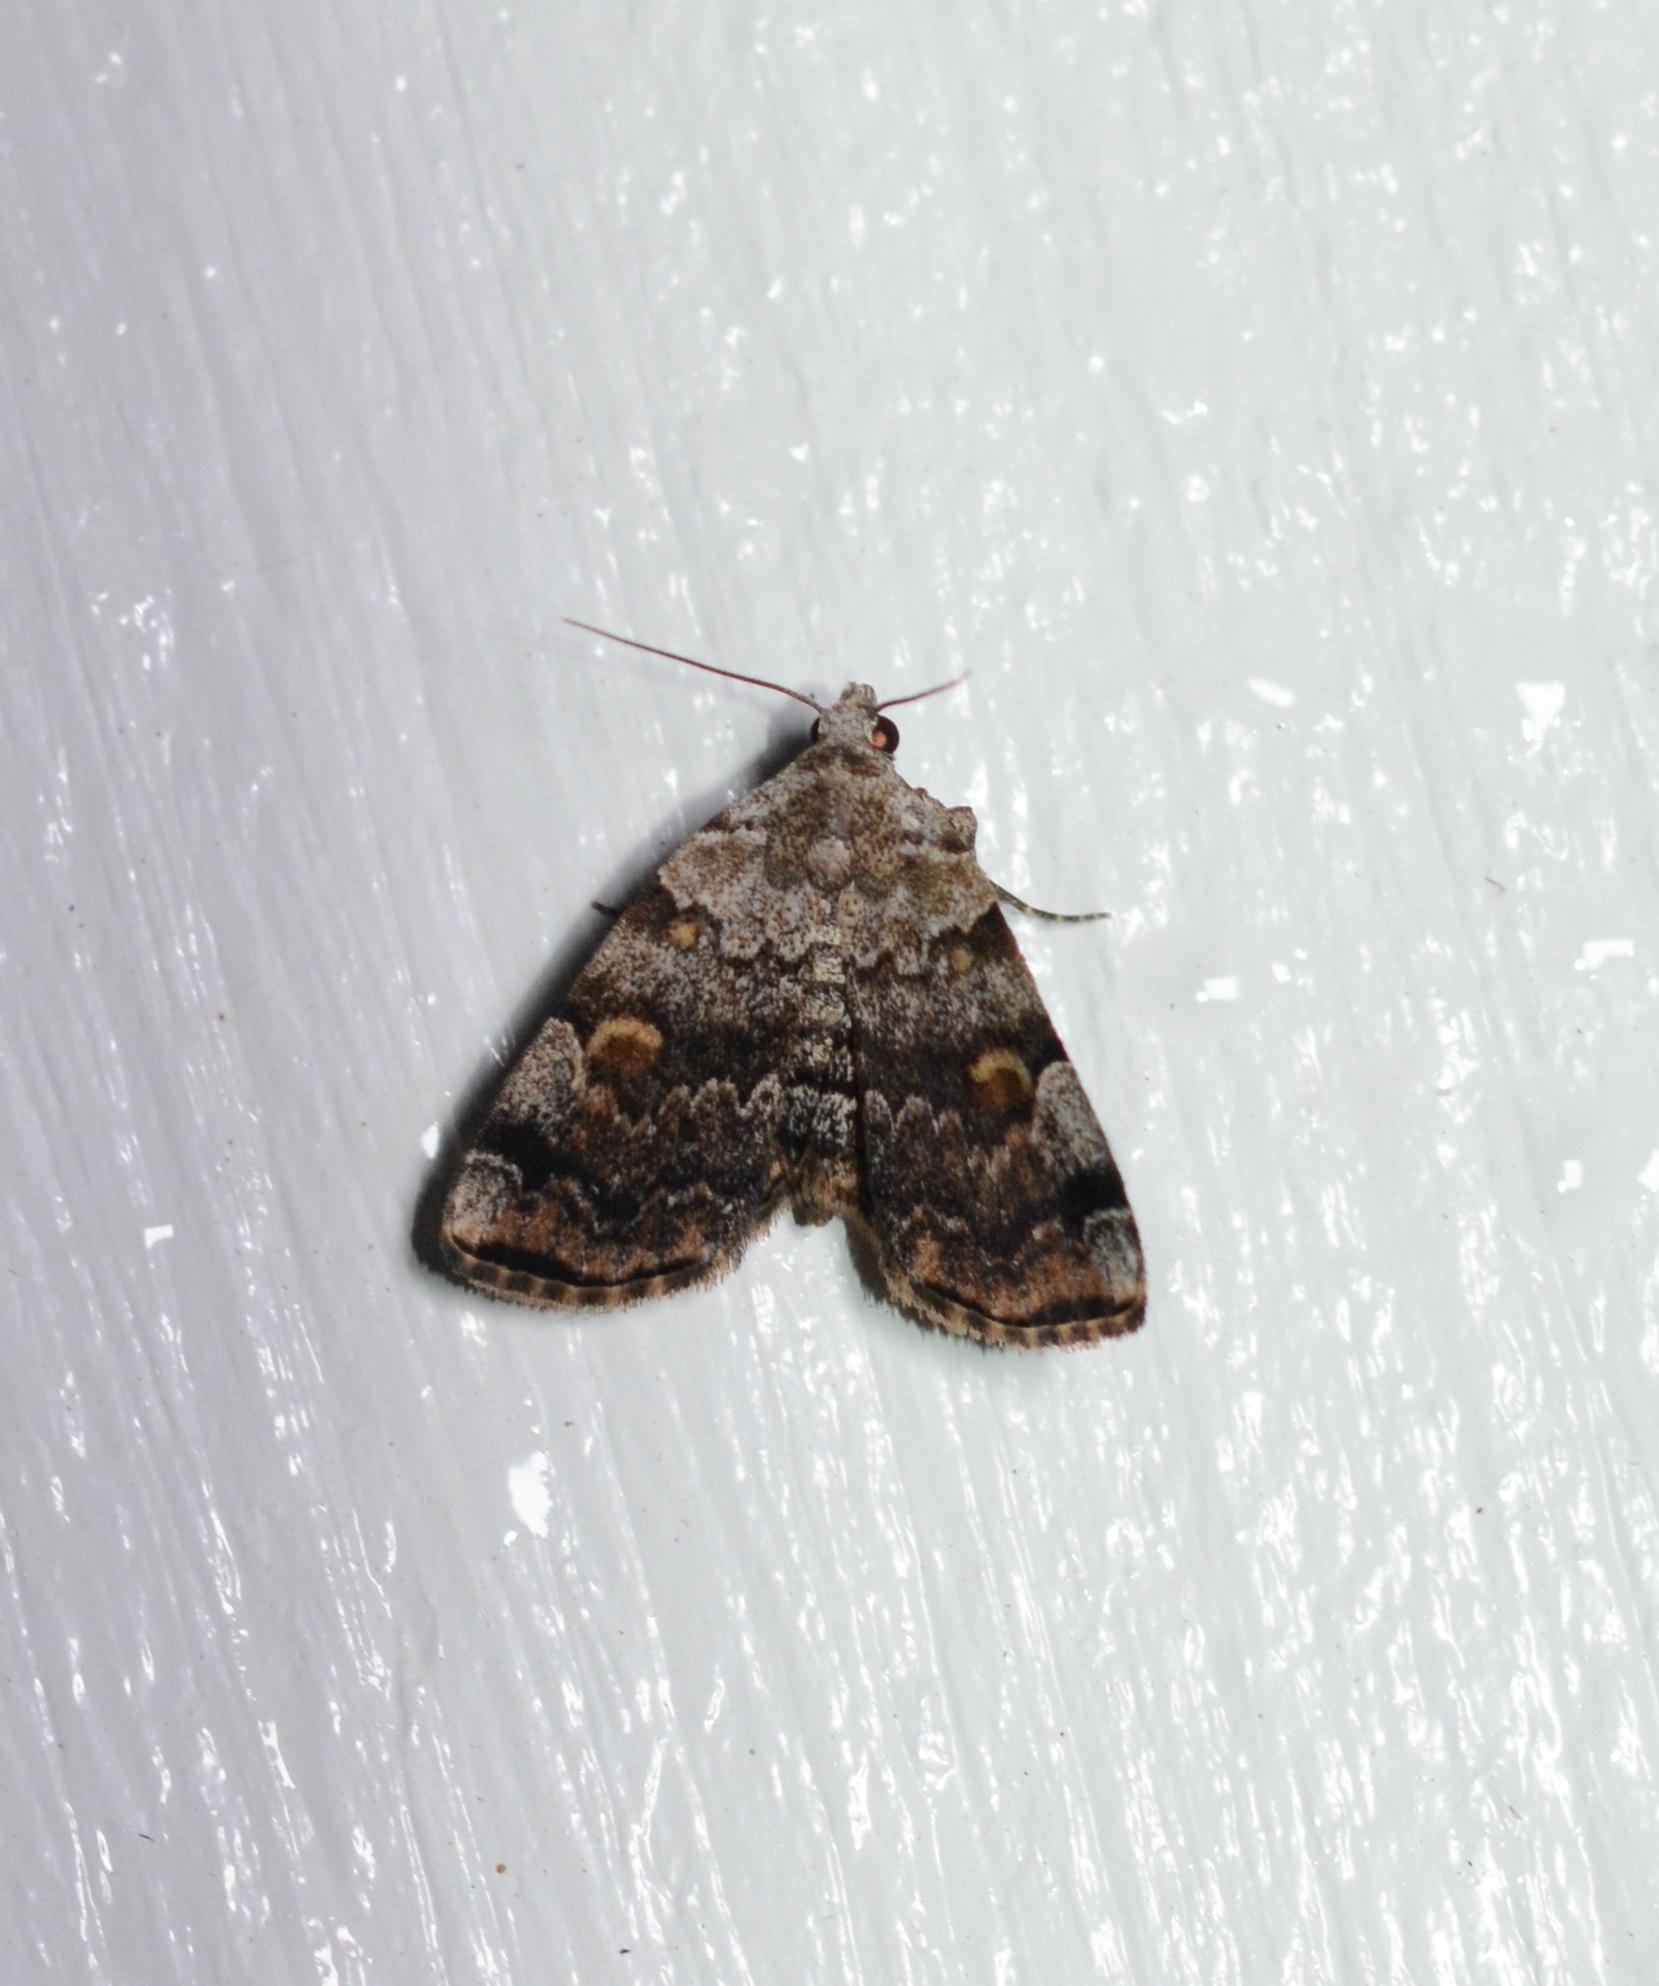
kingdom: Animalia
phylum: Arthropoda
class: Insecta
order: Lepidoptera
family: Erebidae
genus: Idia
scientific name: Idia americalis
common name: American idia moth
